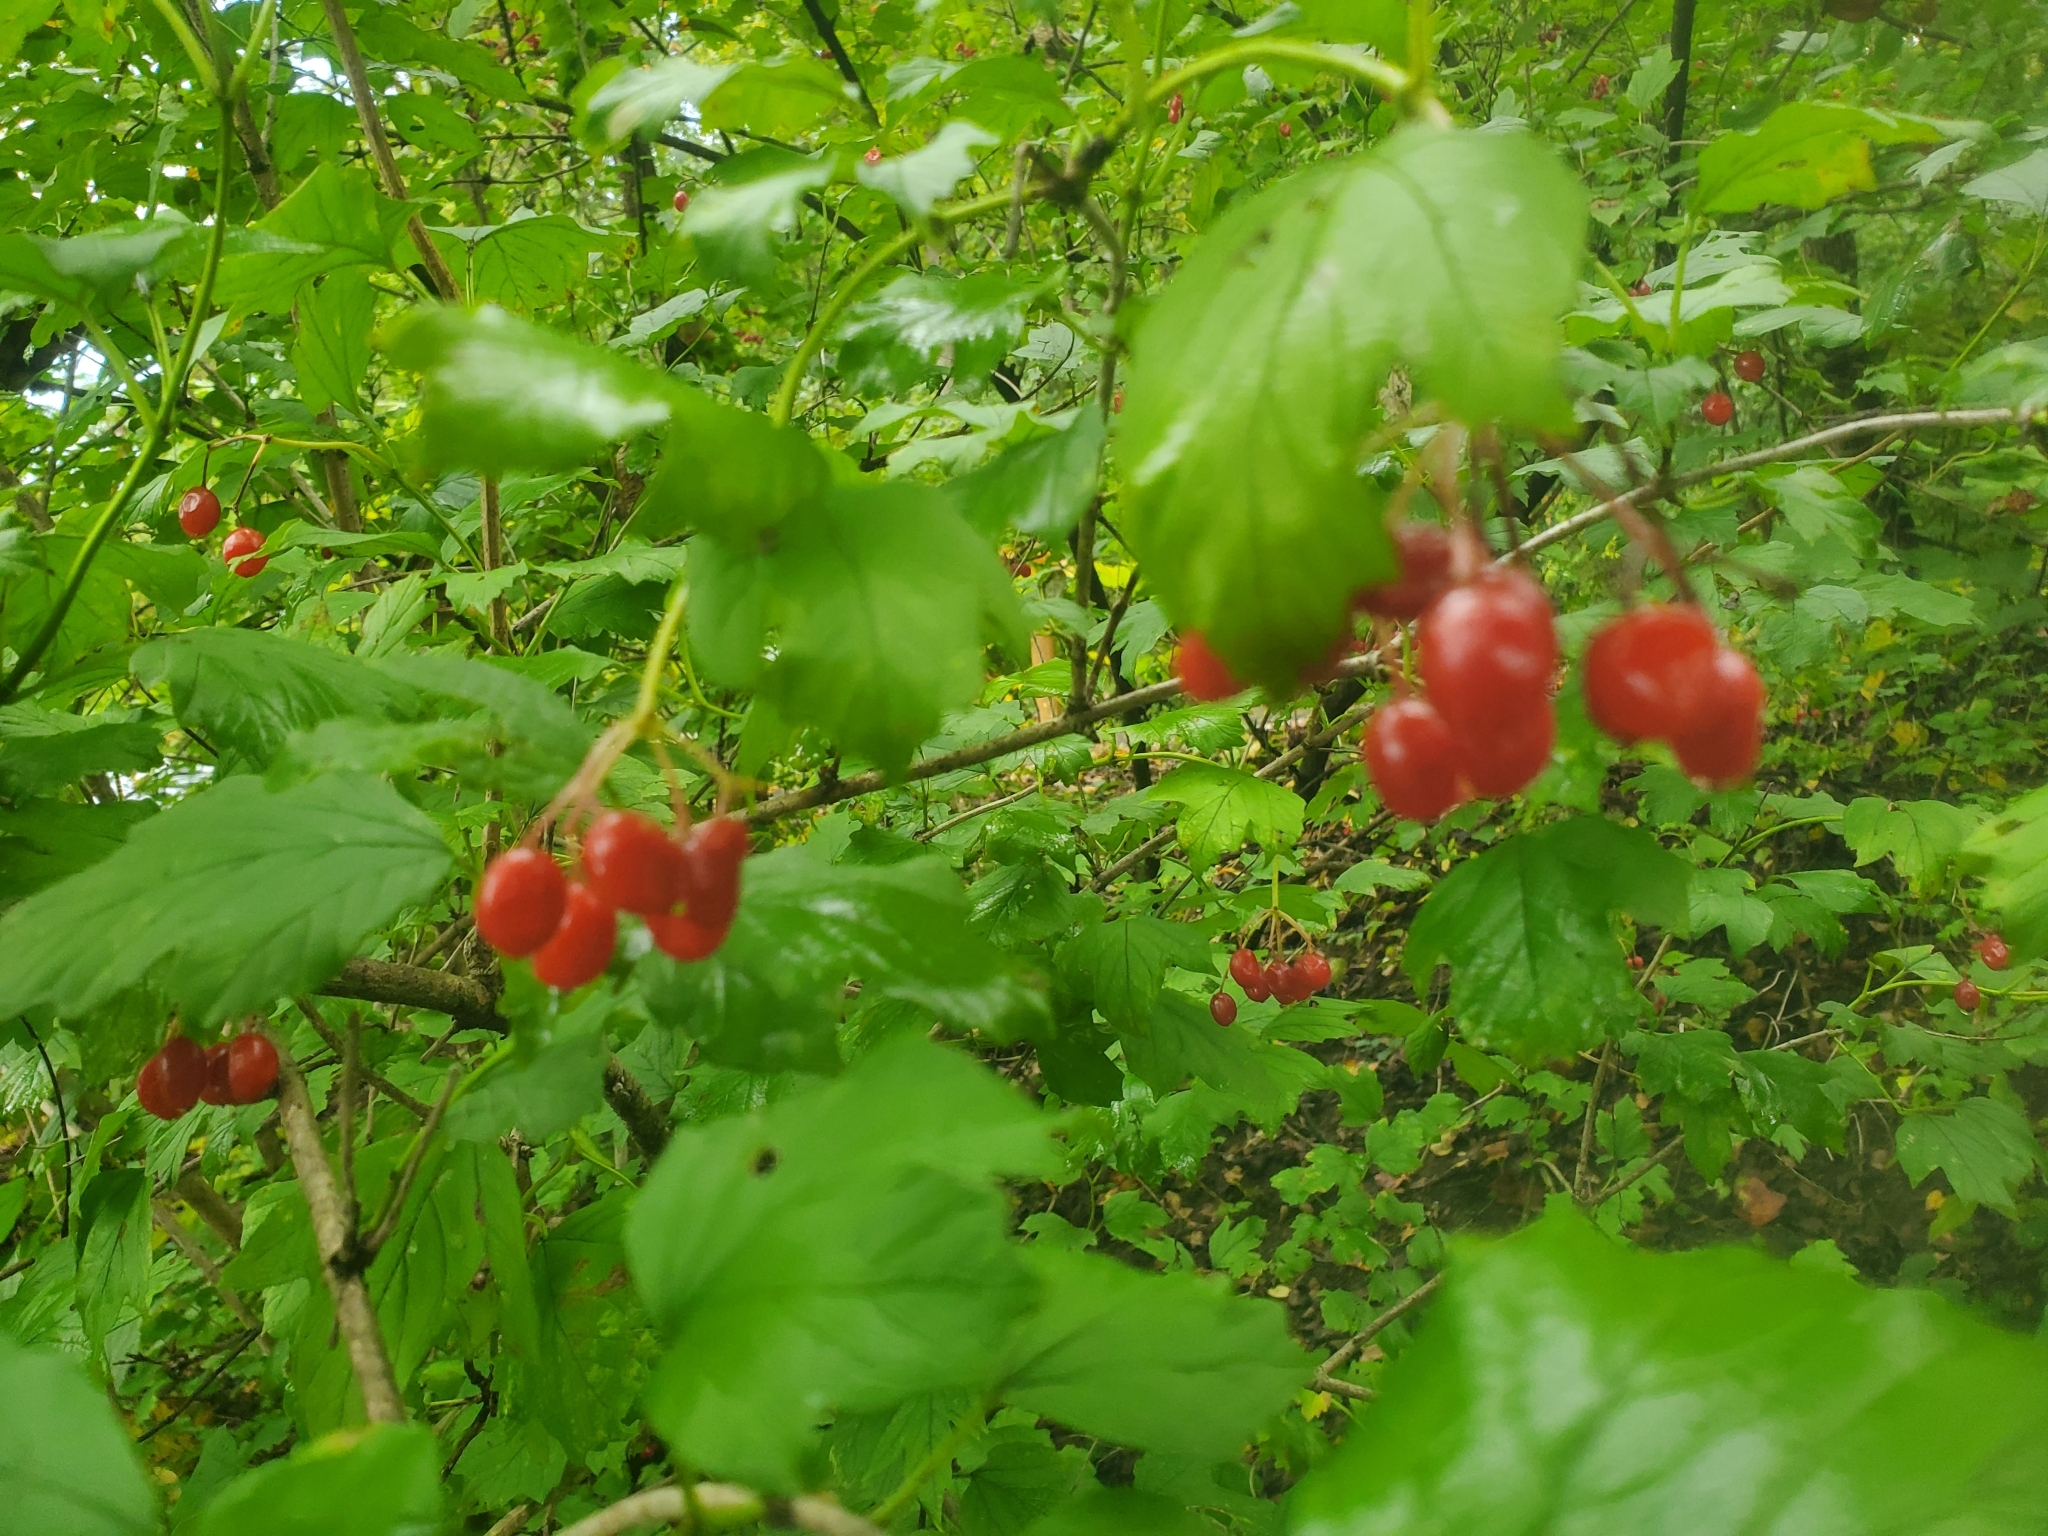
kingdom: Plantae
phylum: Tracheophyta
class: Magnoliopsida
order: Dipsacales
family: Viburnaceae
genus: Viburnum
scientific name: Viburnum opulus
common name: Guelder-rose
